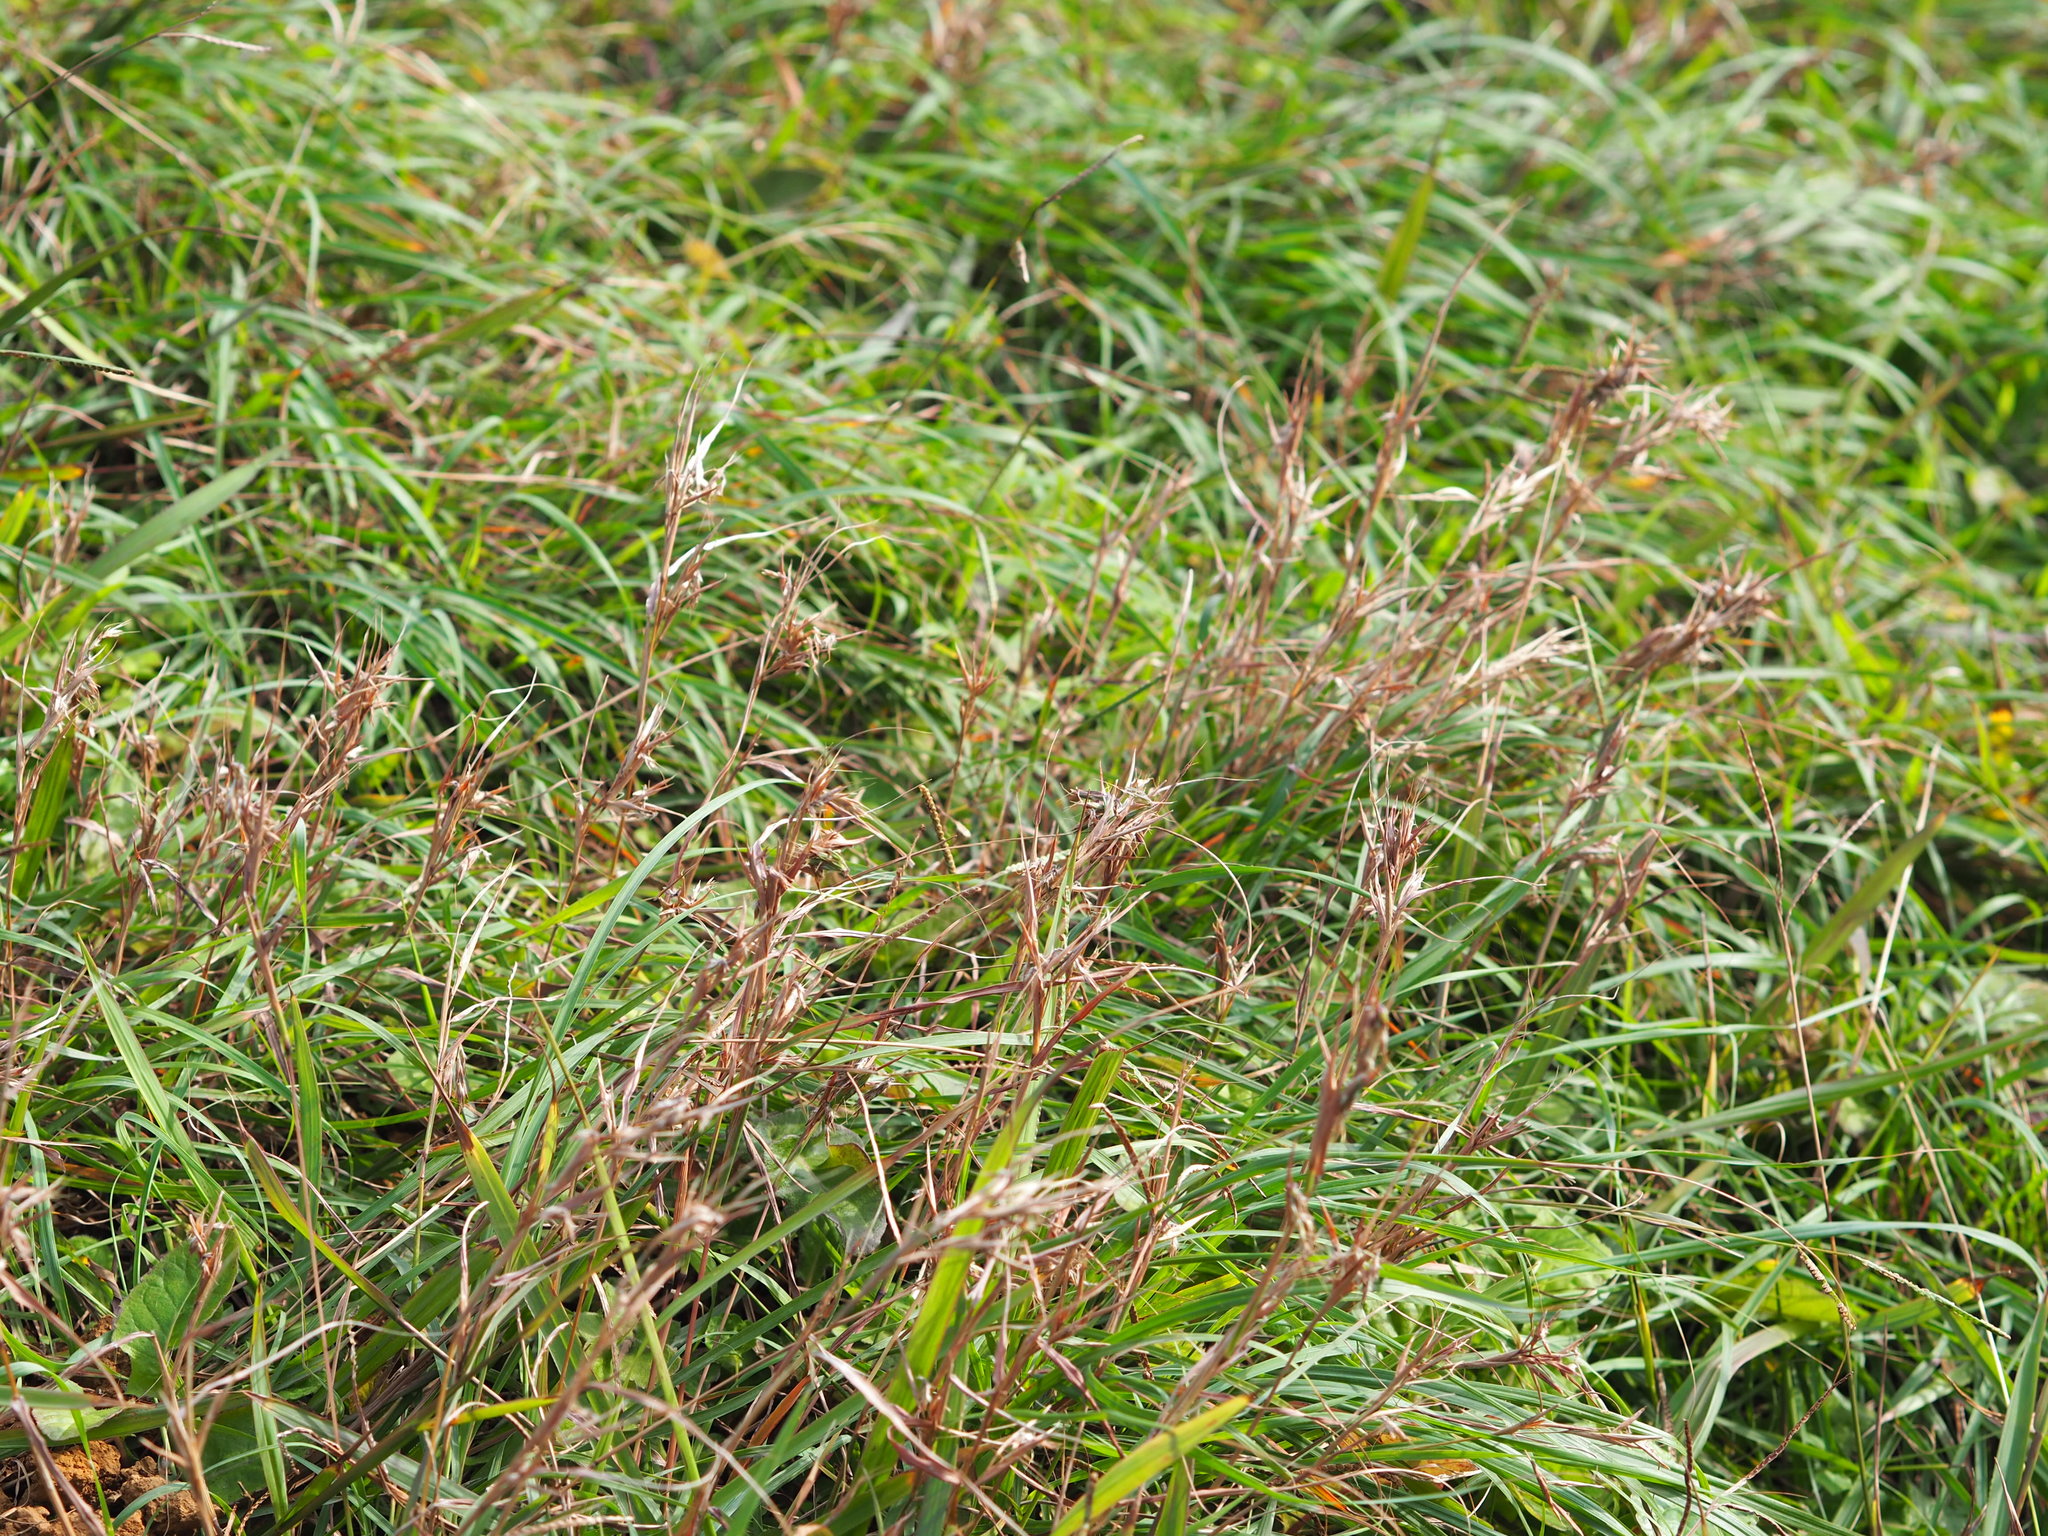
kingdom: Plantae
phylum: Tracheophyta
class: Liliopsida
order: Poales
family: Poaceae
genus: Cymbopogon
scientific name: Cymbopogon tortilis
